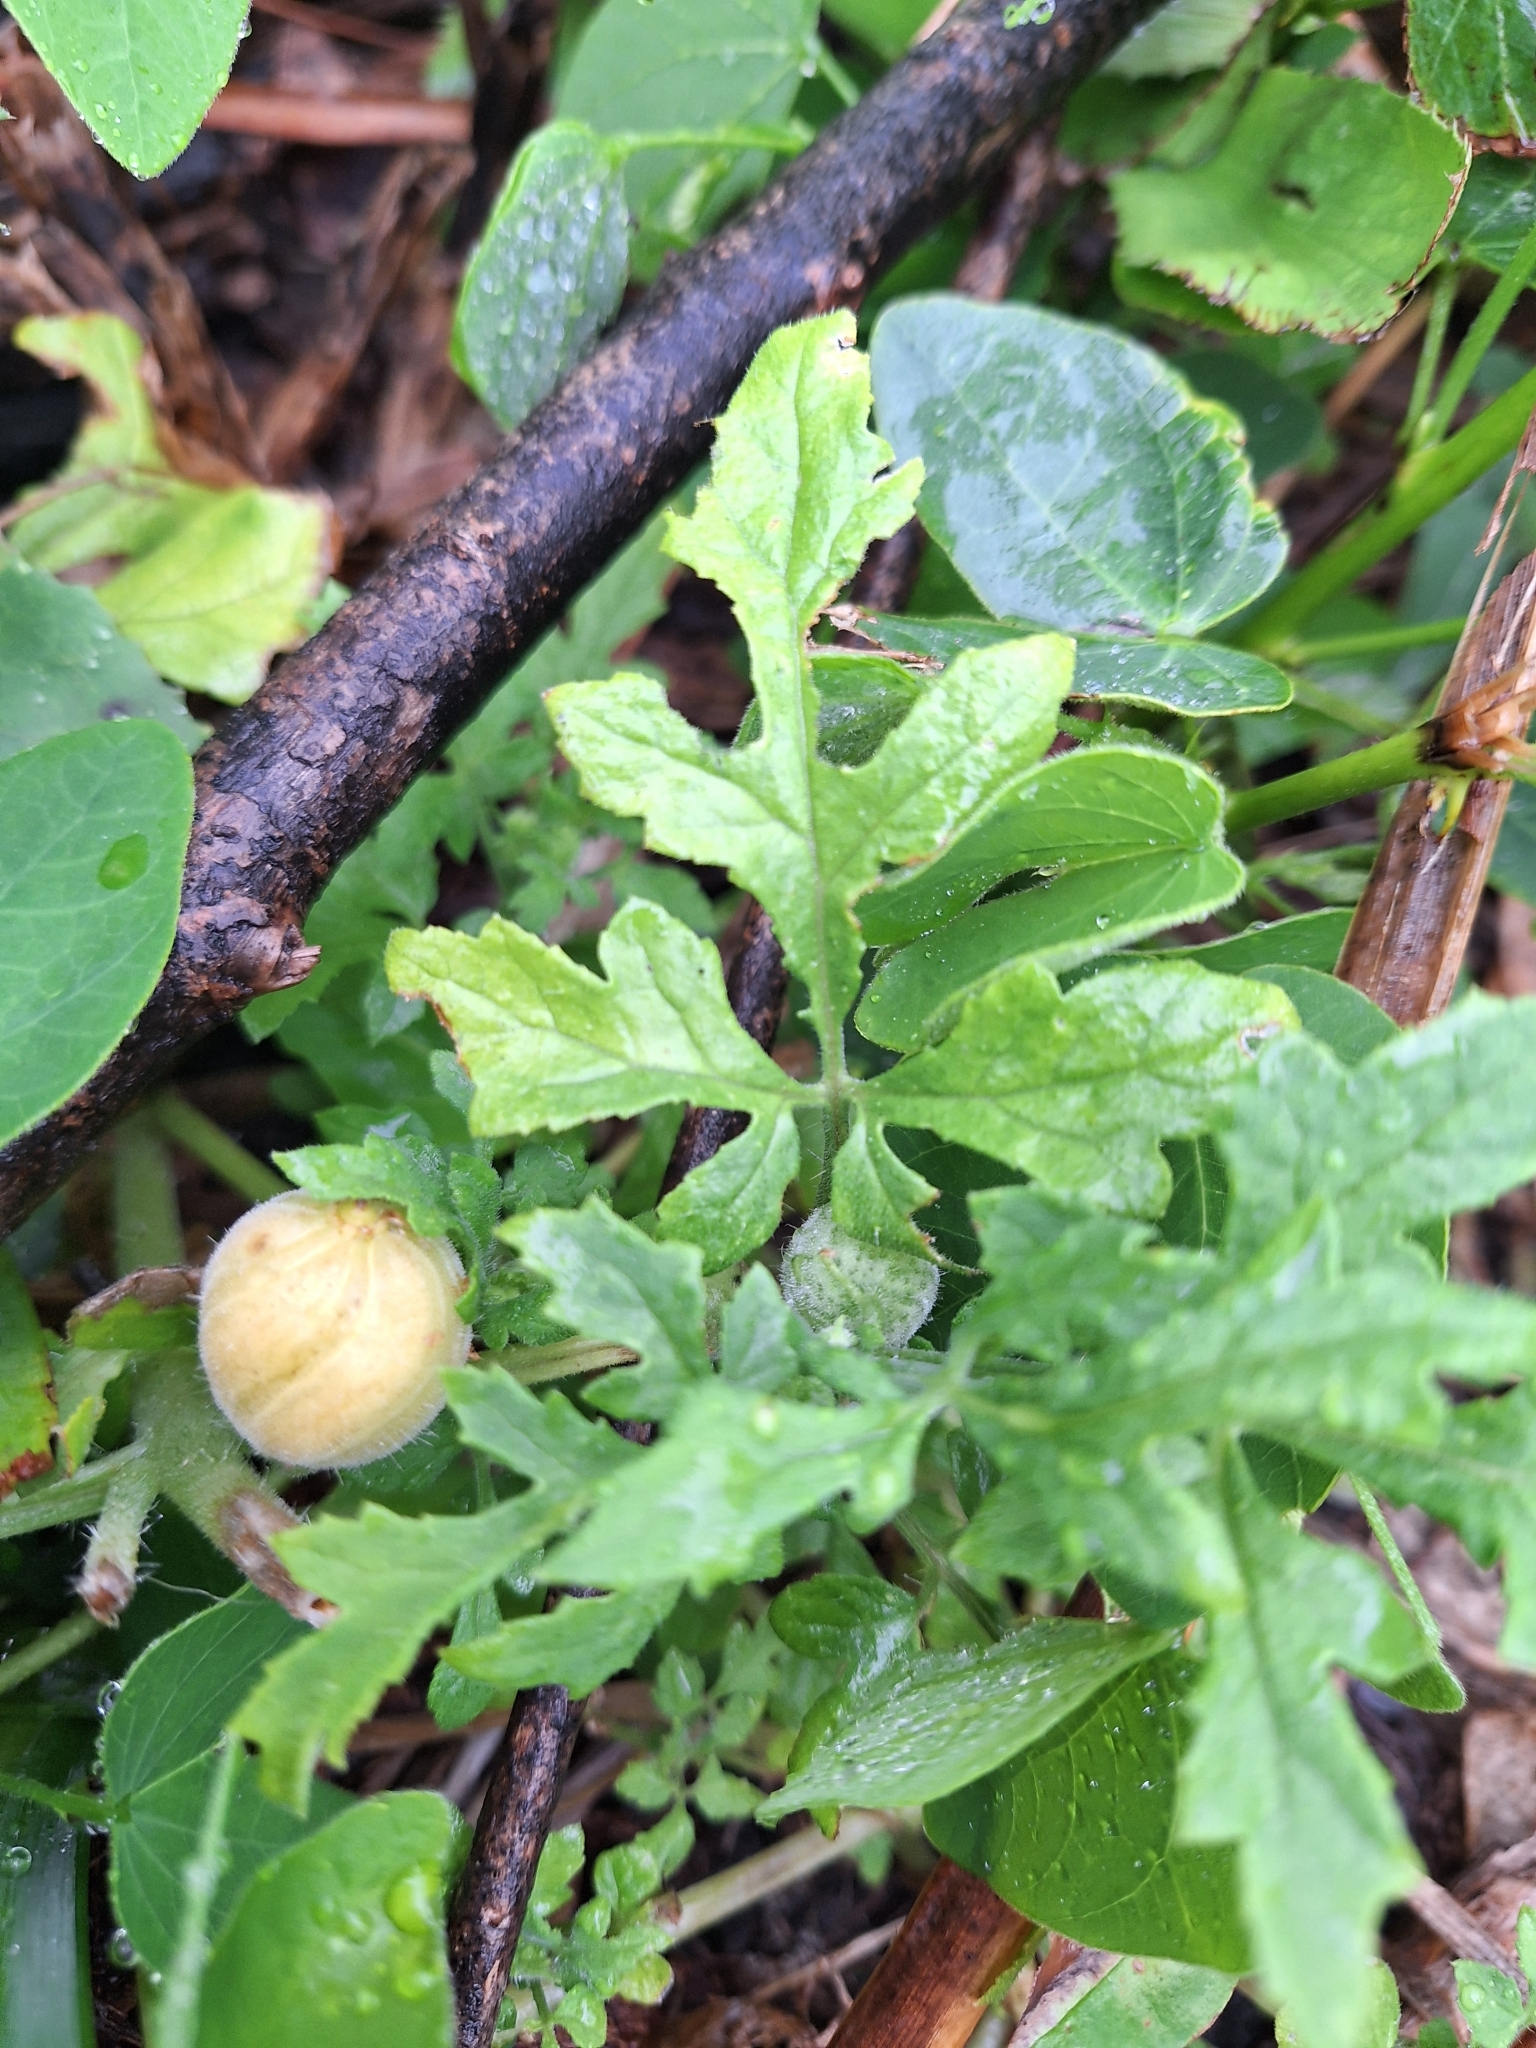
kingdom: Plantae
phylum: Tracheophyta
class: Magnoliopsida
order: Cornales
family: Loasaceae
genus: Blumenbachia
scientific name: Blumenbachia latifolia
